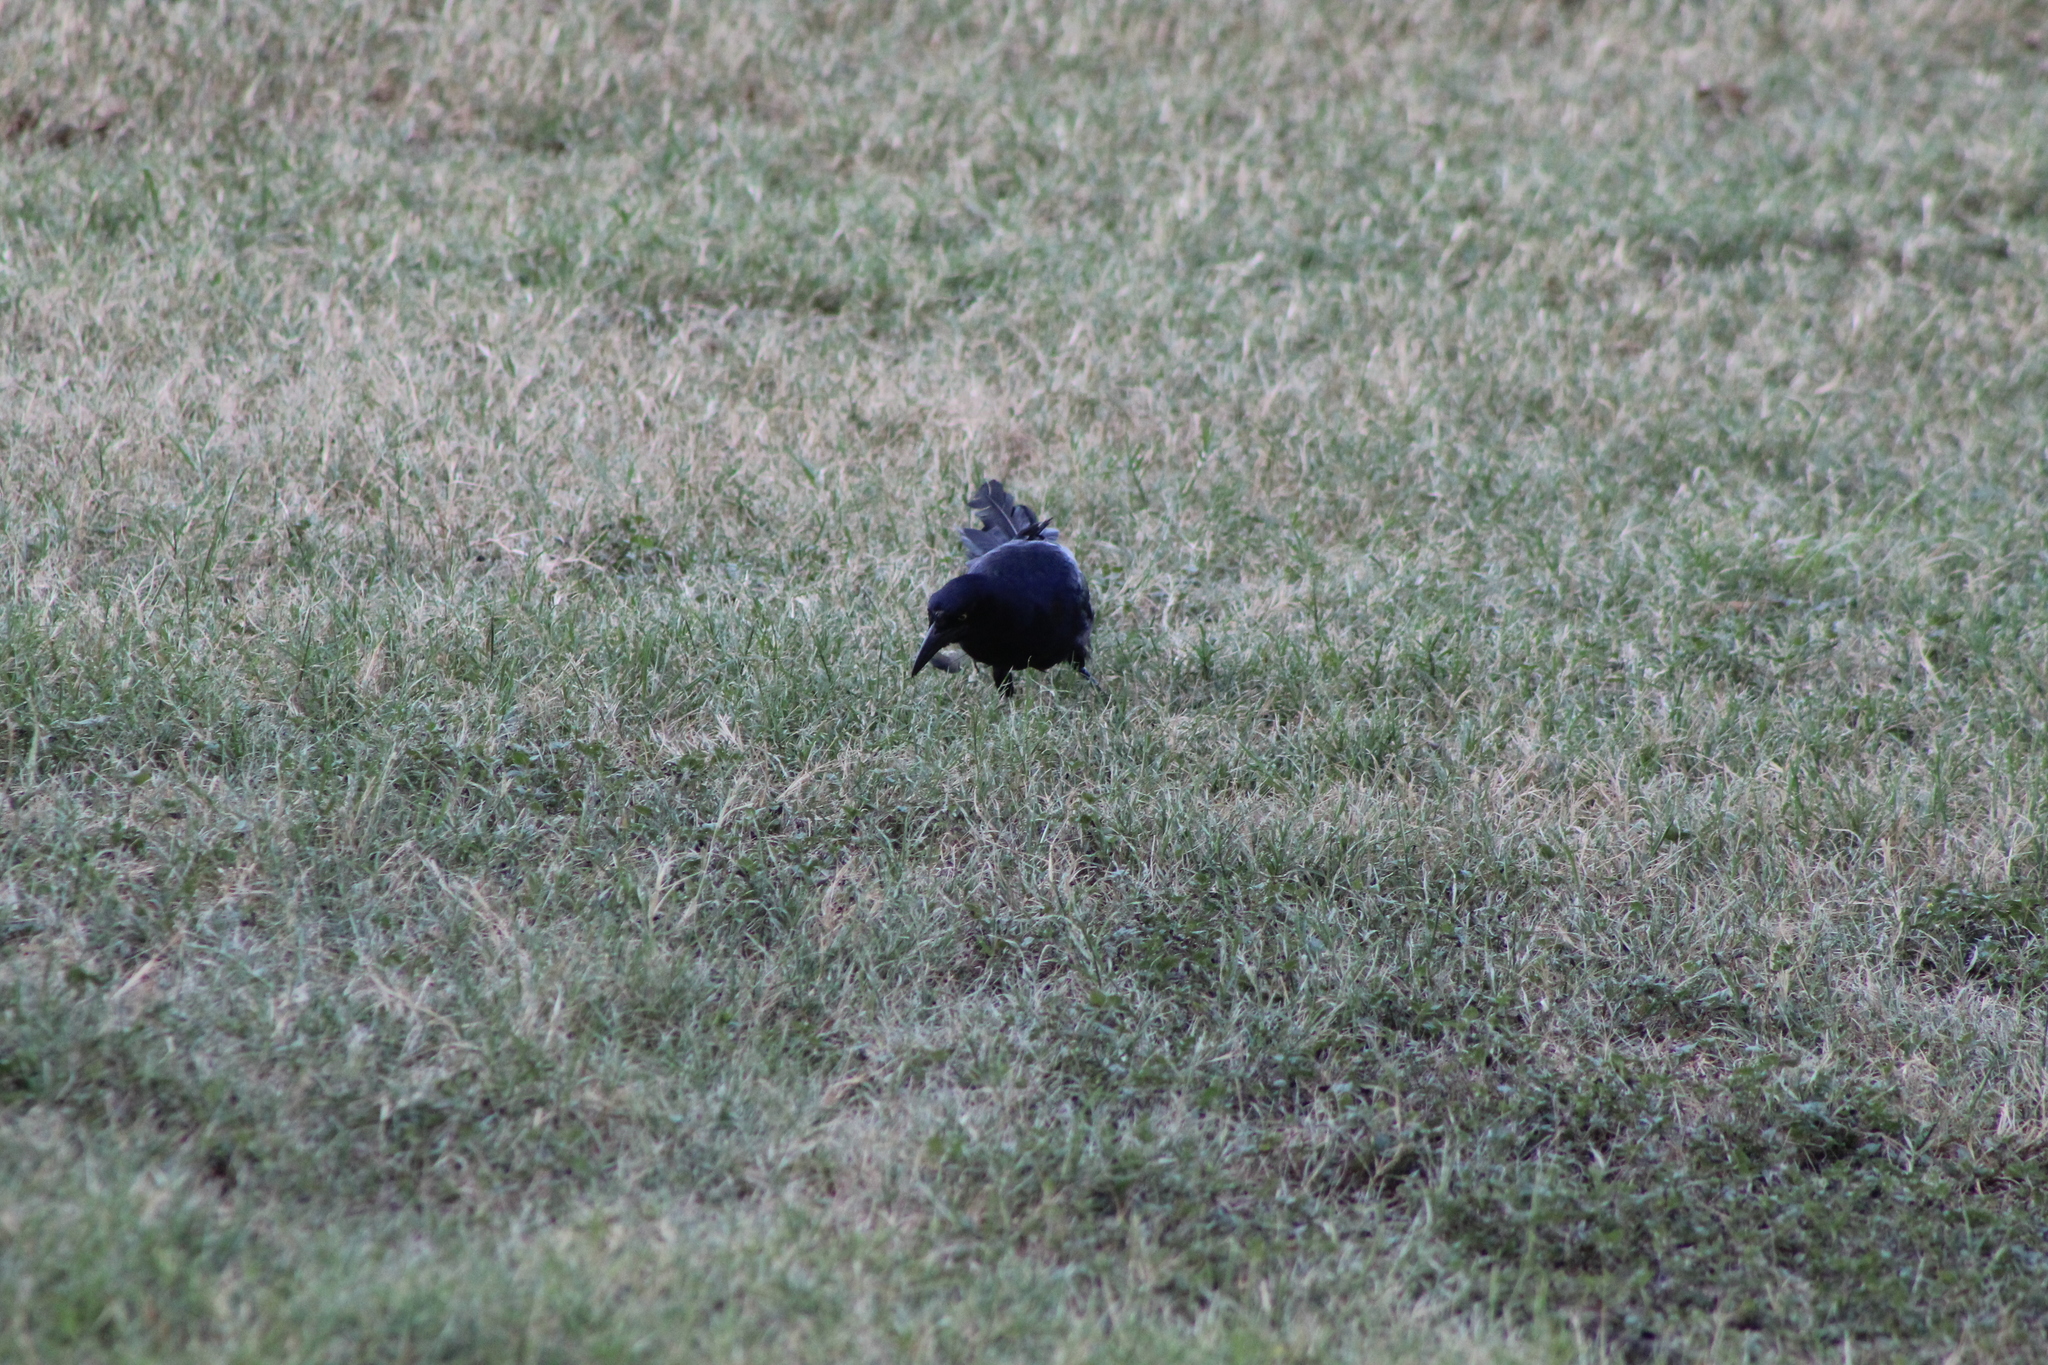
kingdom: Animalia
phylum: Chordata
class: Aves
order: Passeriformes
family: Icteridae
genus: Quiscalus
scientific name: Quiscalus mexicanus
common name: Great-tailed grackle
